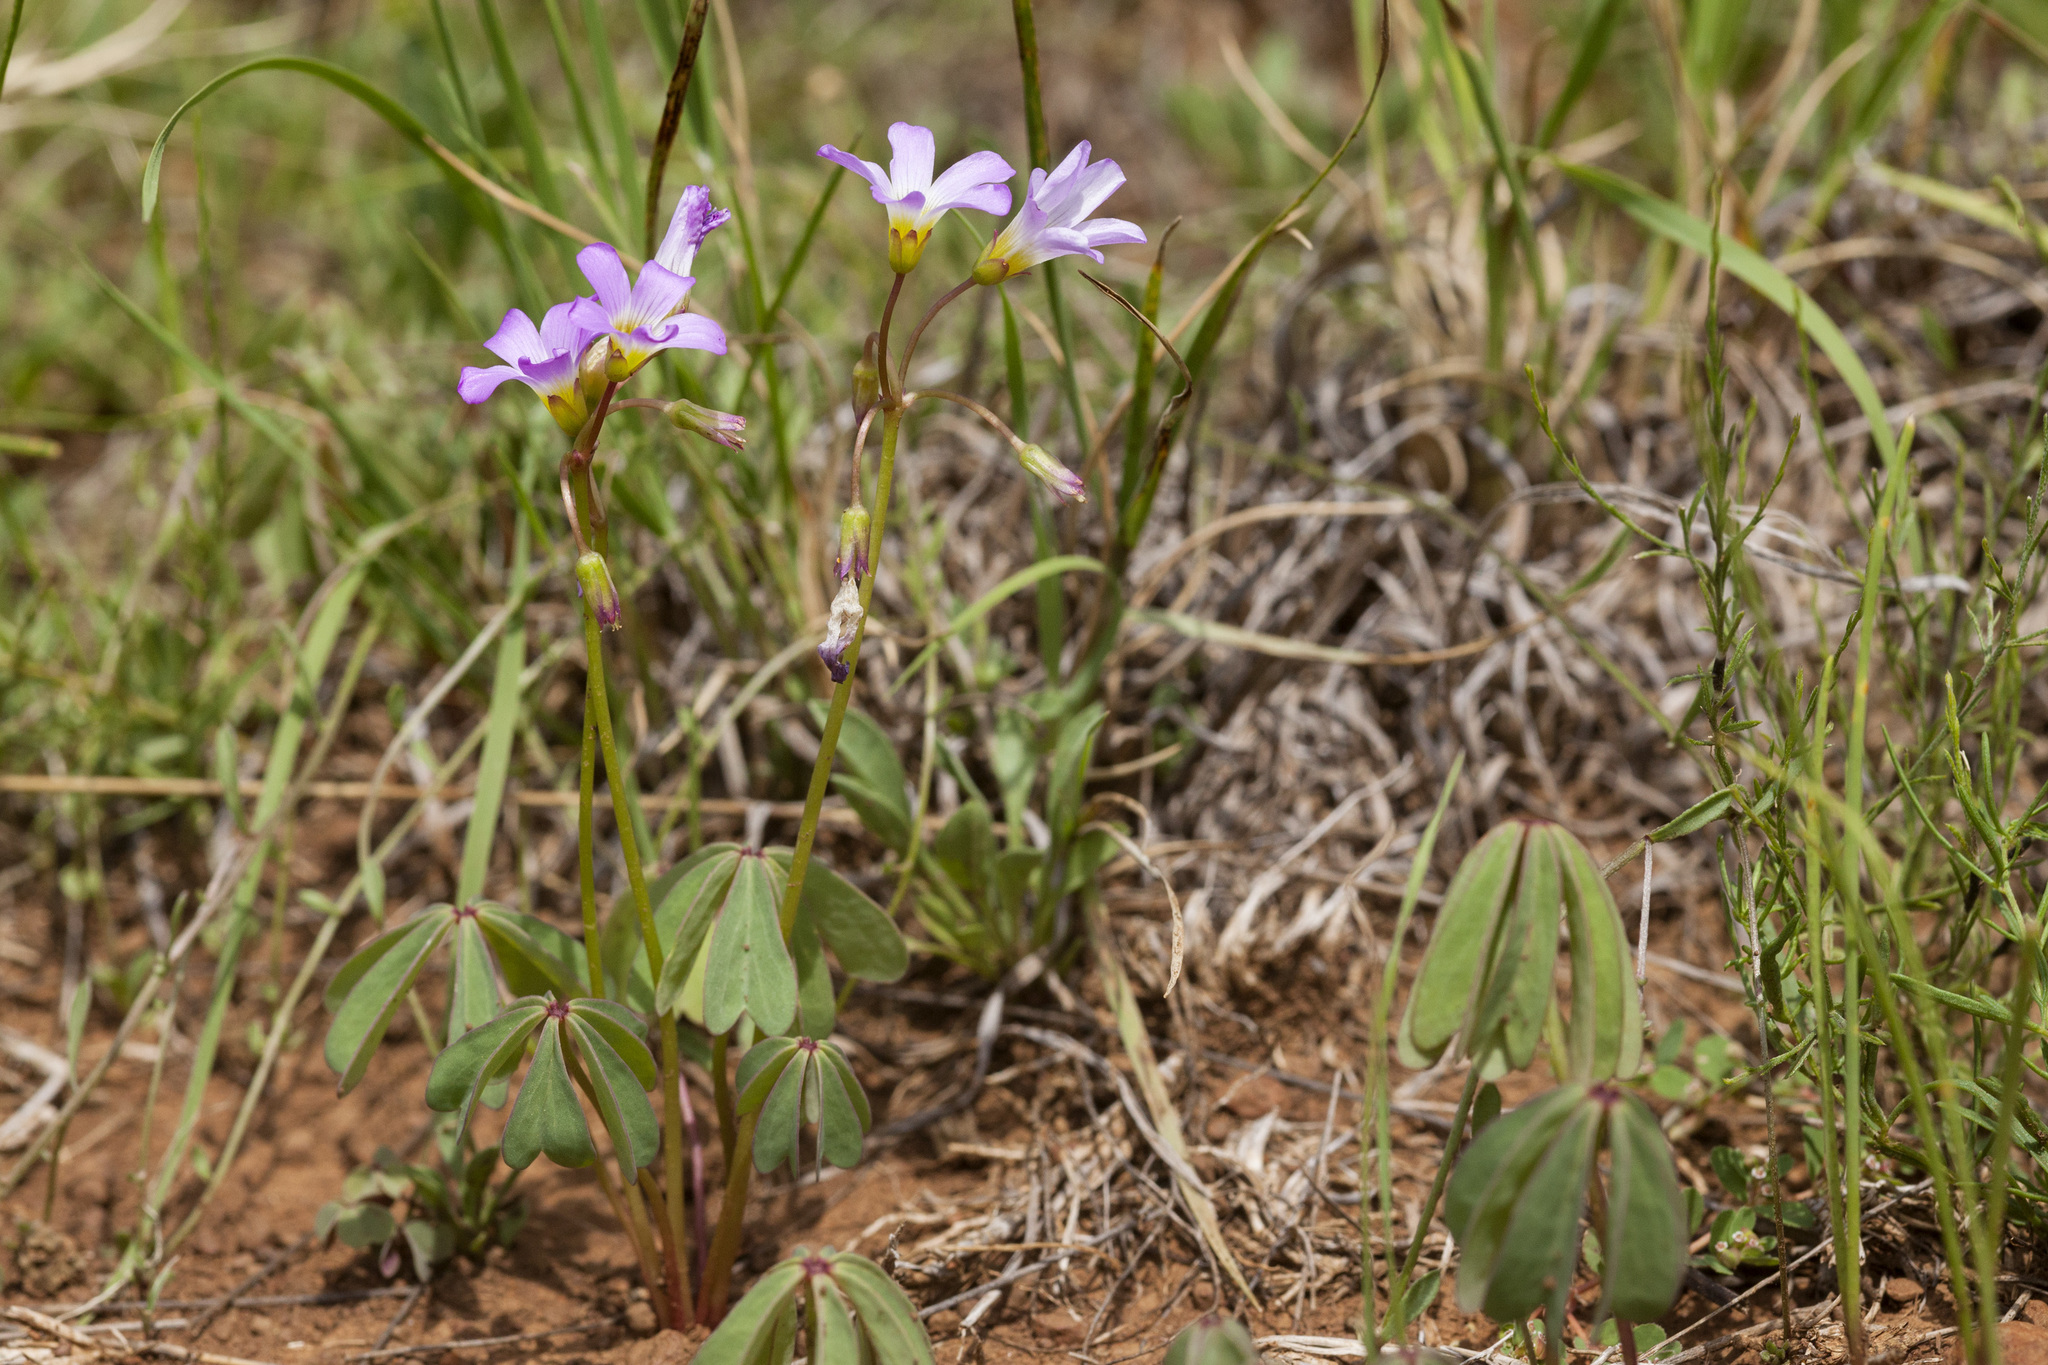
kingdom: Plantae
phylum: Tracheophyta
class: Magnoliopsida
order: Oxalidales
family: Oxalidaceae
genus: Oxalis
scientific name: Oxalis decaphylla
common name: Ten-leaved pink-sorrel
